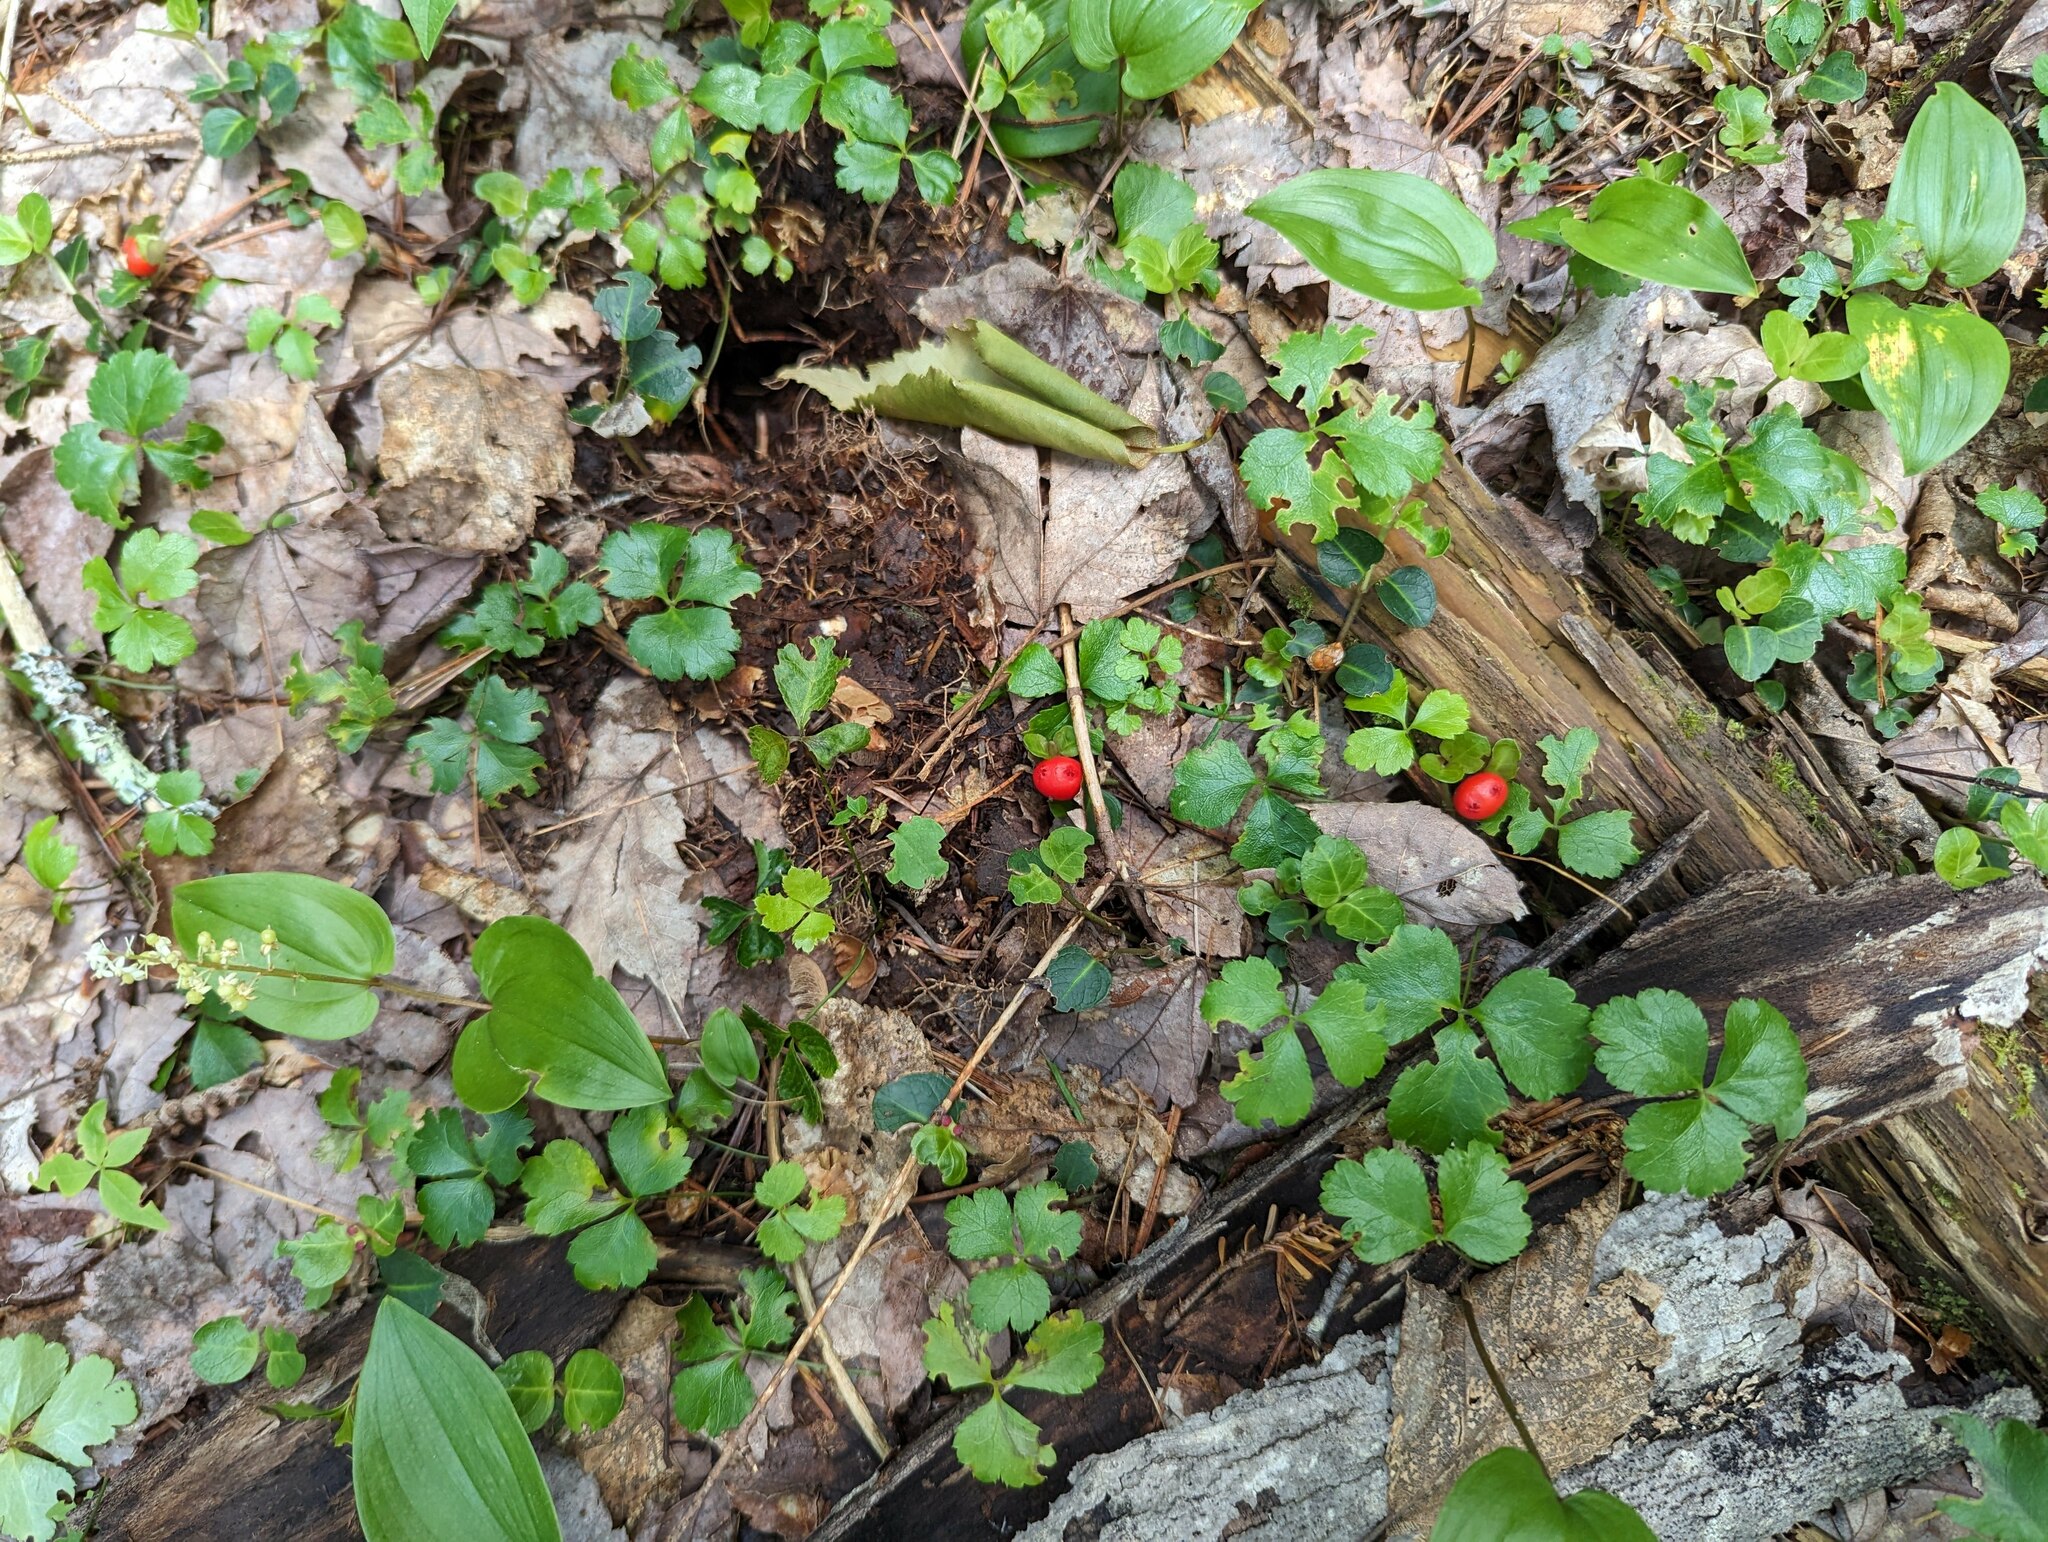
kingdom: Plantae
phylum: Tracheophyta
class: Magnoliopsida
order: Ranunculales
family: Ranunculaceae
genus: Coptis
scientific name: Coptis trifolia
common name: Canker-root
